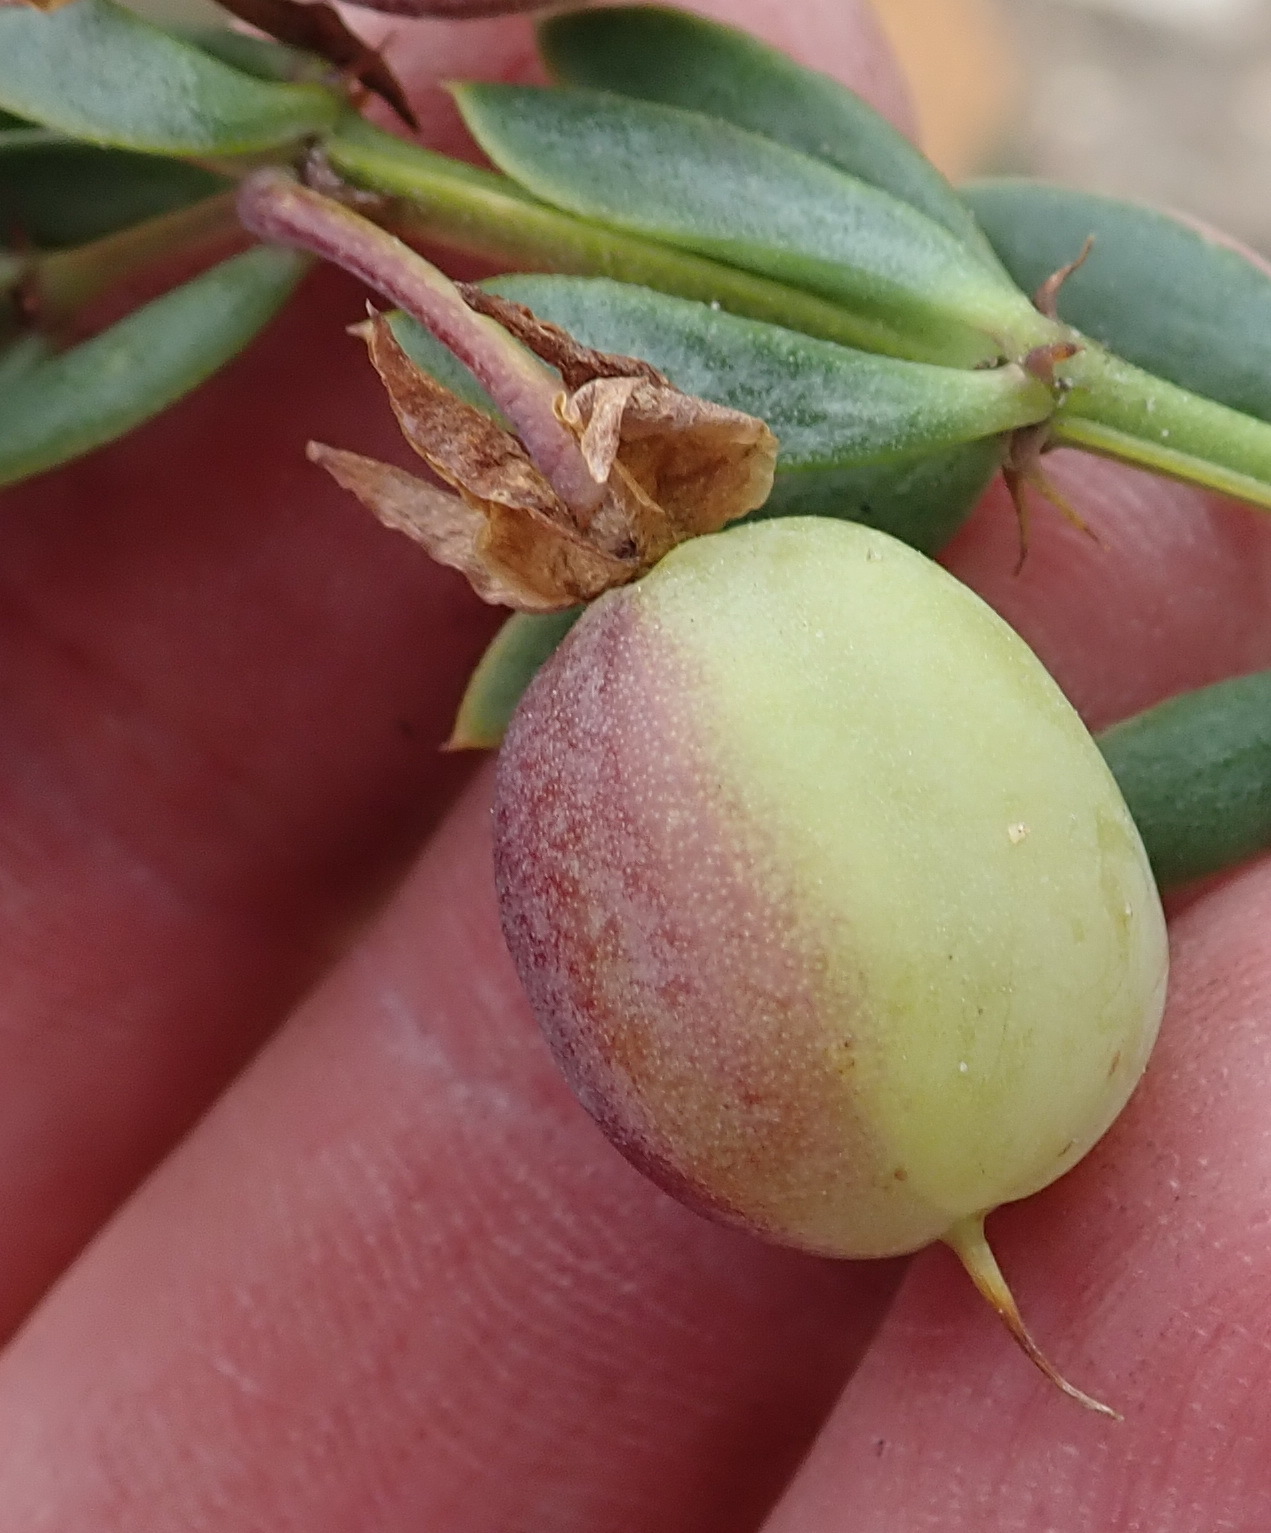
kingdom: Plantae
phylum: Tracheophyta
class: Magnoliopsida
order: Zygophyllales
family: Zygophyllaceae
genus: Roepera
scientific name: Roepera fulva
